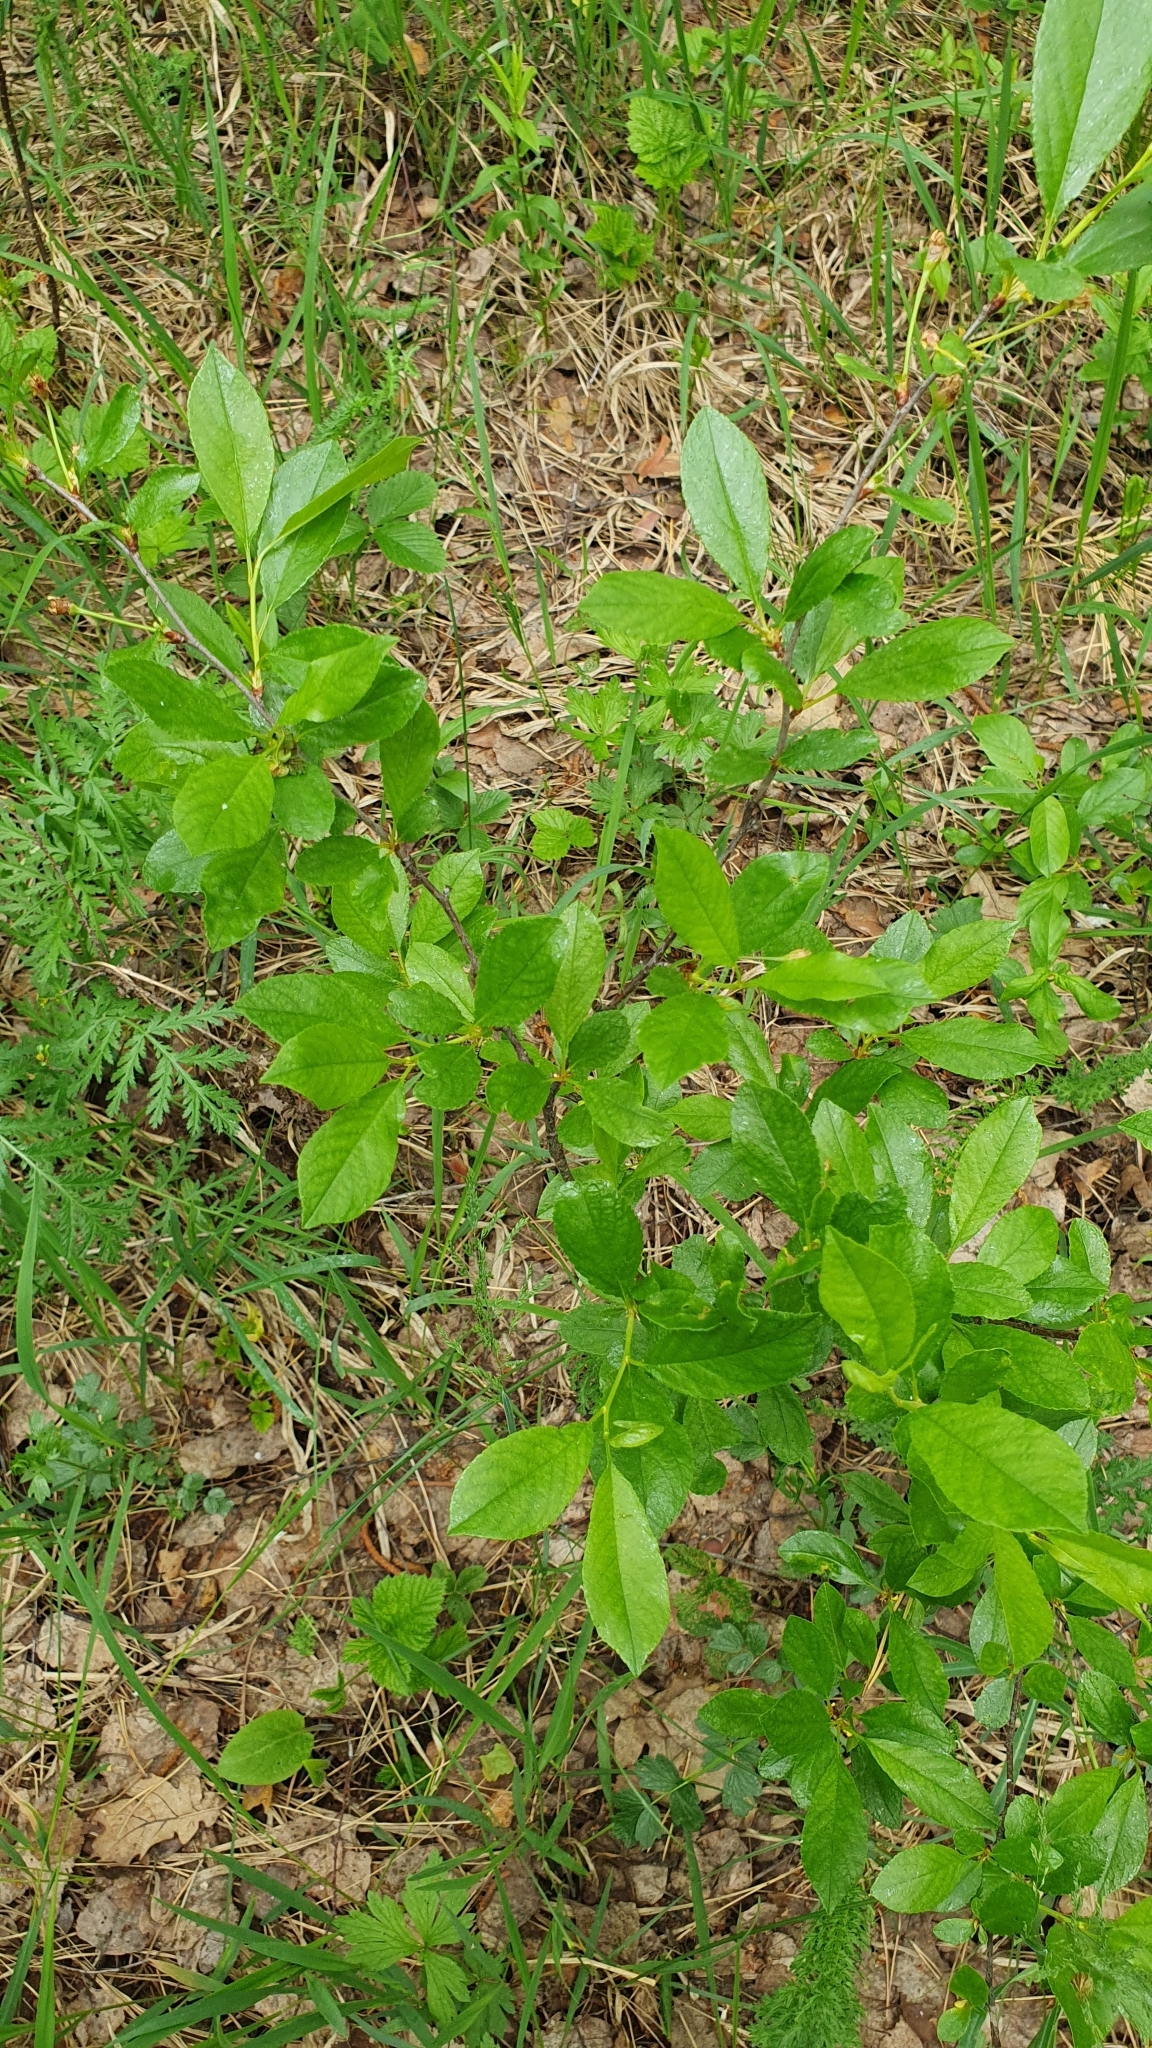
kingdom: Plantae
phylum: Tracheophyta
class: Magnoliopsida
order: Rosales
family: Rosaceae
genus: Prunus
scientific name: Prunus fruticosa
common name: European dwarf cherry
